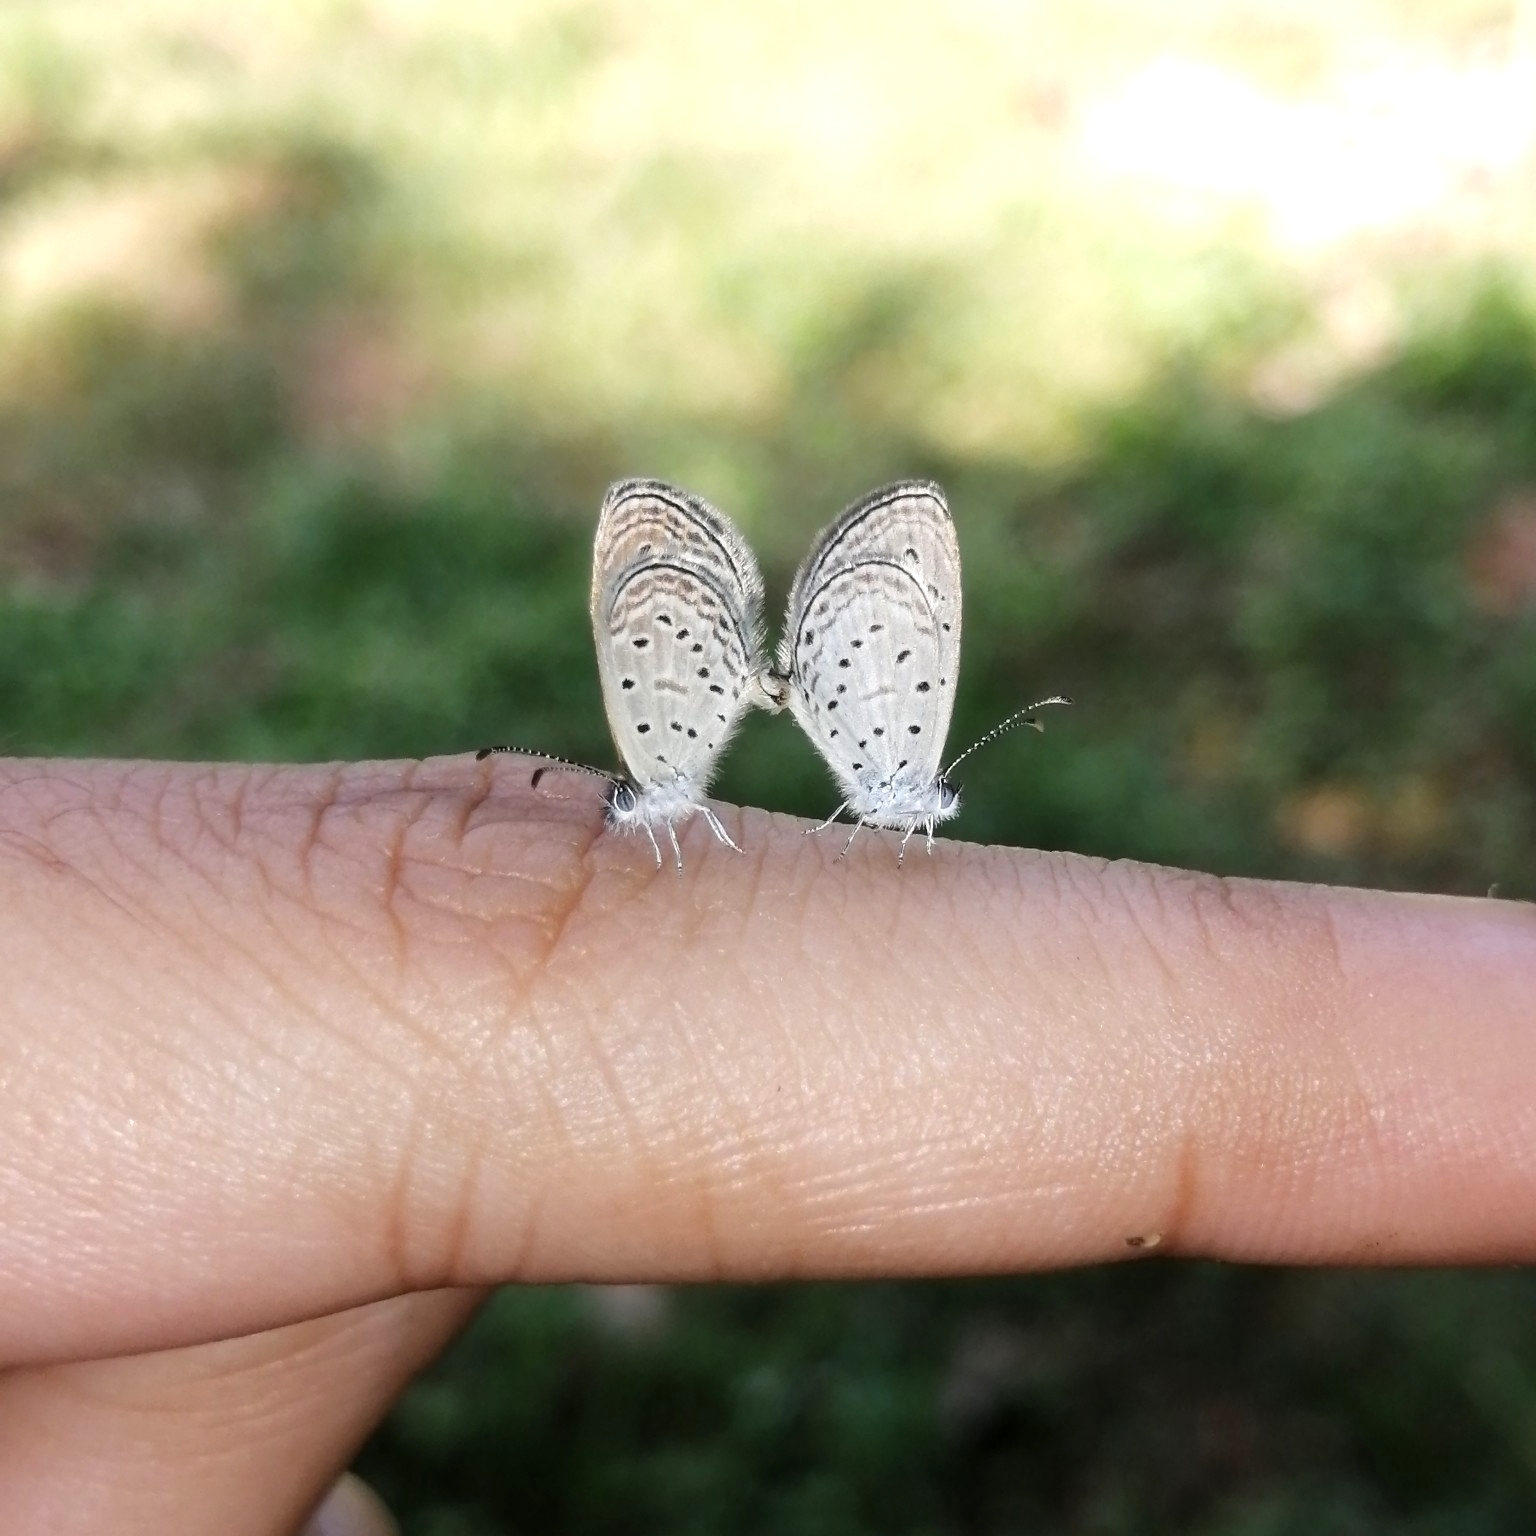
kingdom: Animalia
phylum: Arthropoda
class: Insecta
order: Lepidoptera
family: Lycaenidae
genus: Zizula
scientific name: Zizula hylax
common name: Gaika blue
